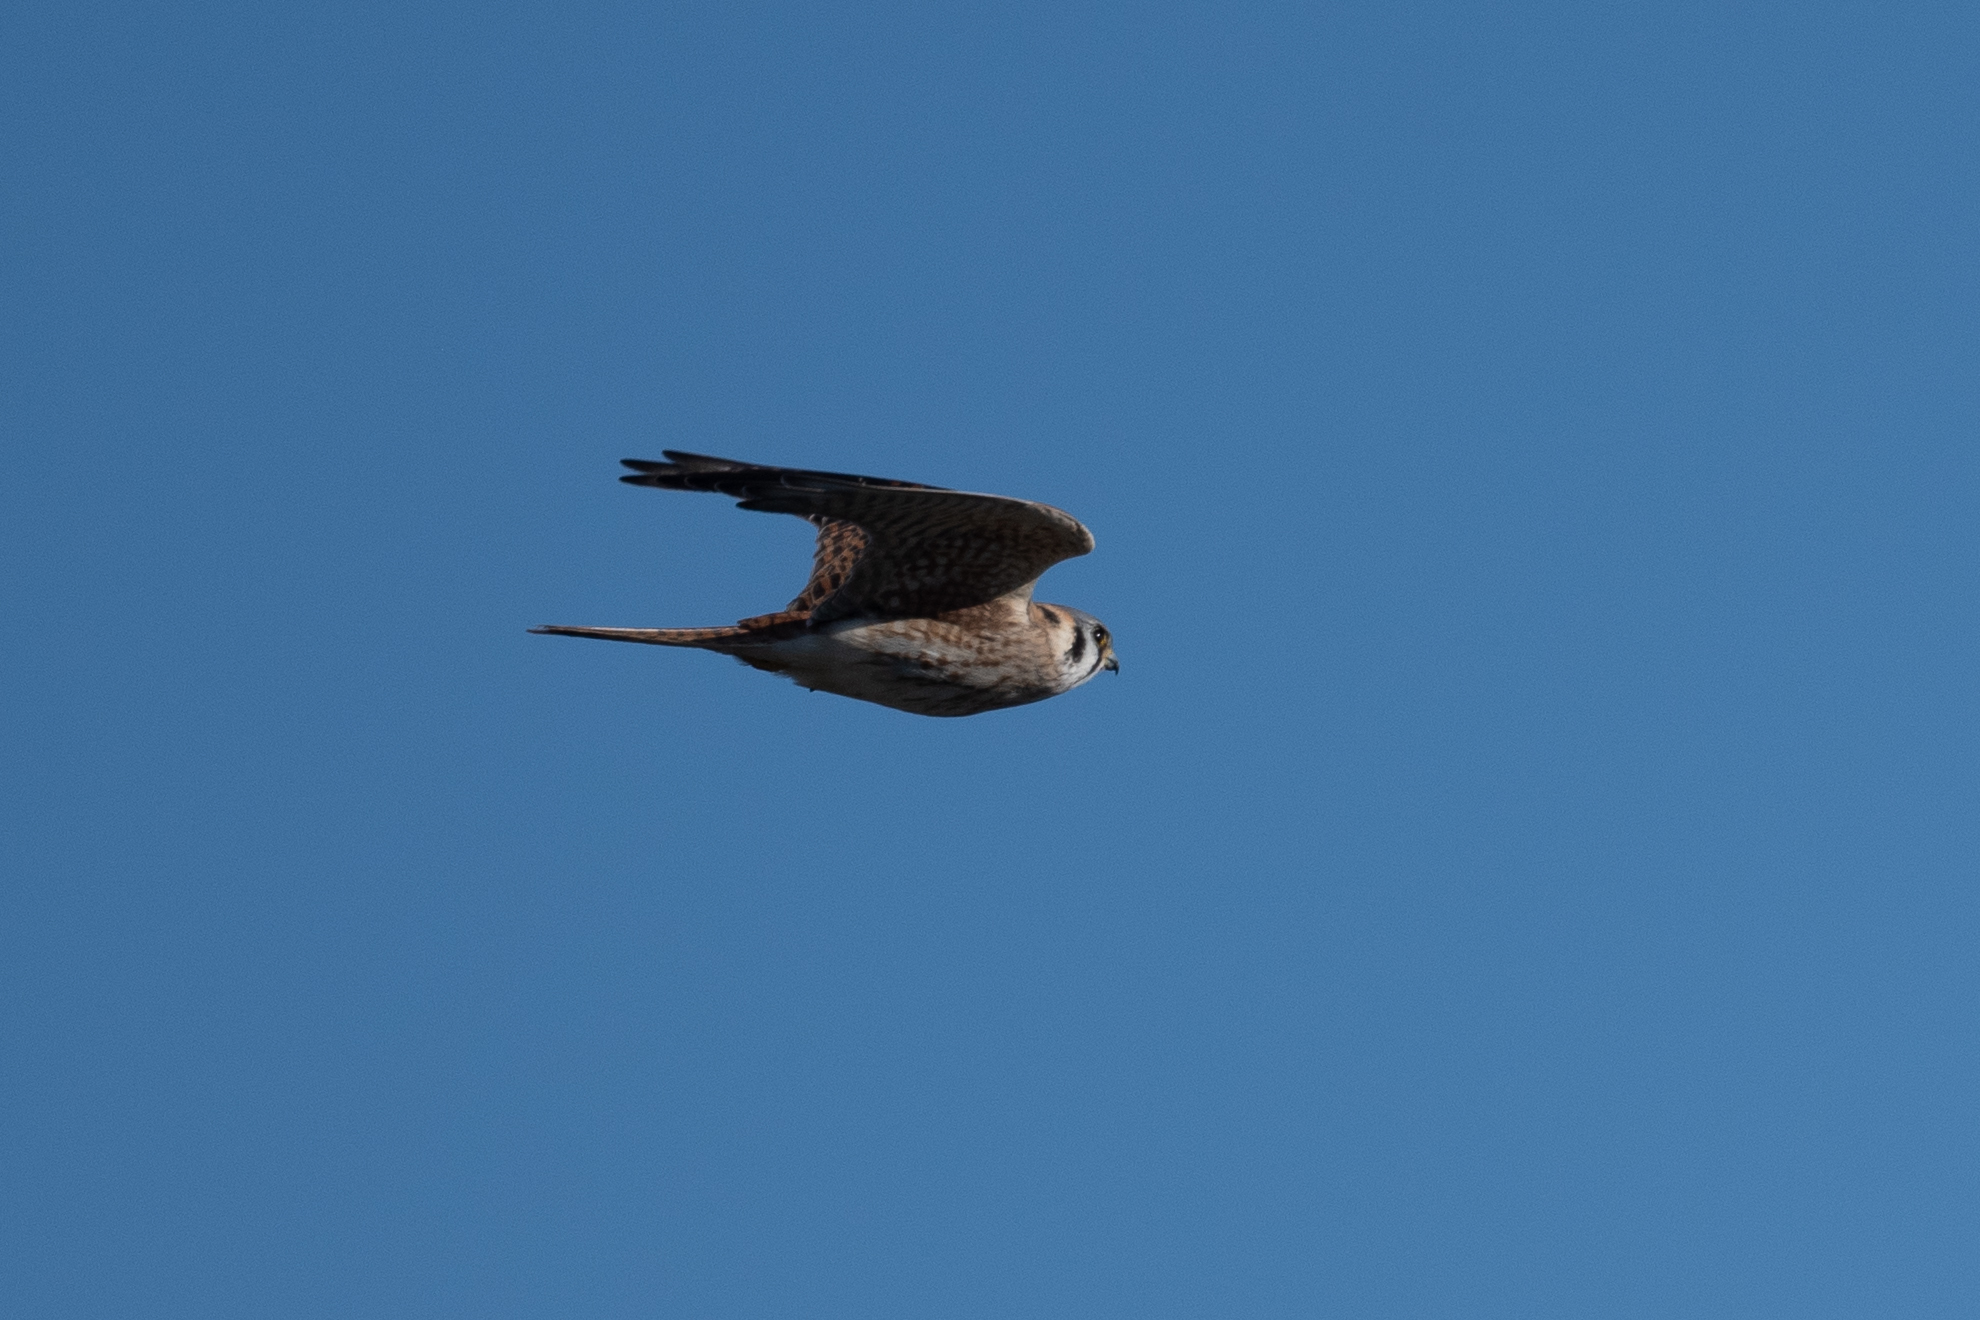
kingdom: Animalia
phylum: Chordata
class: Aves
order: Falconiformes
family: Falconidae
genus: Falco
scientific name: Falco sparverius
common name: American kestrel
